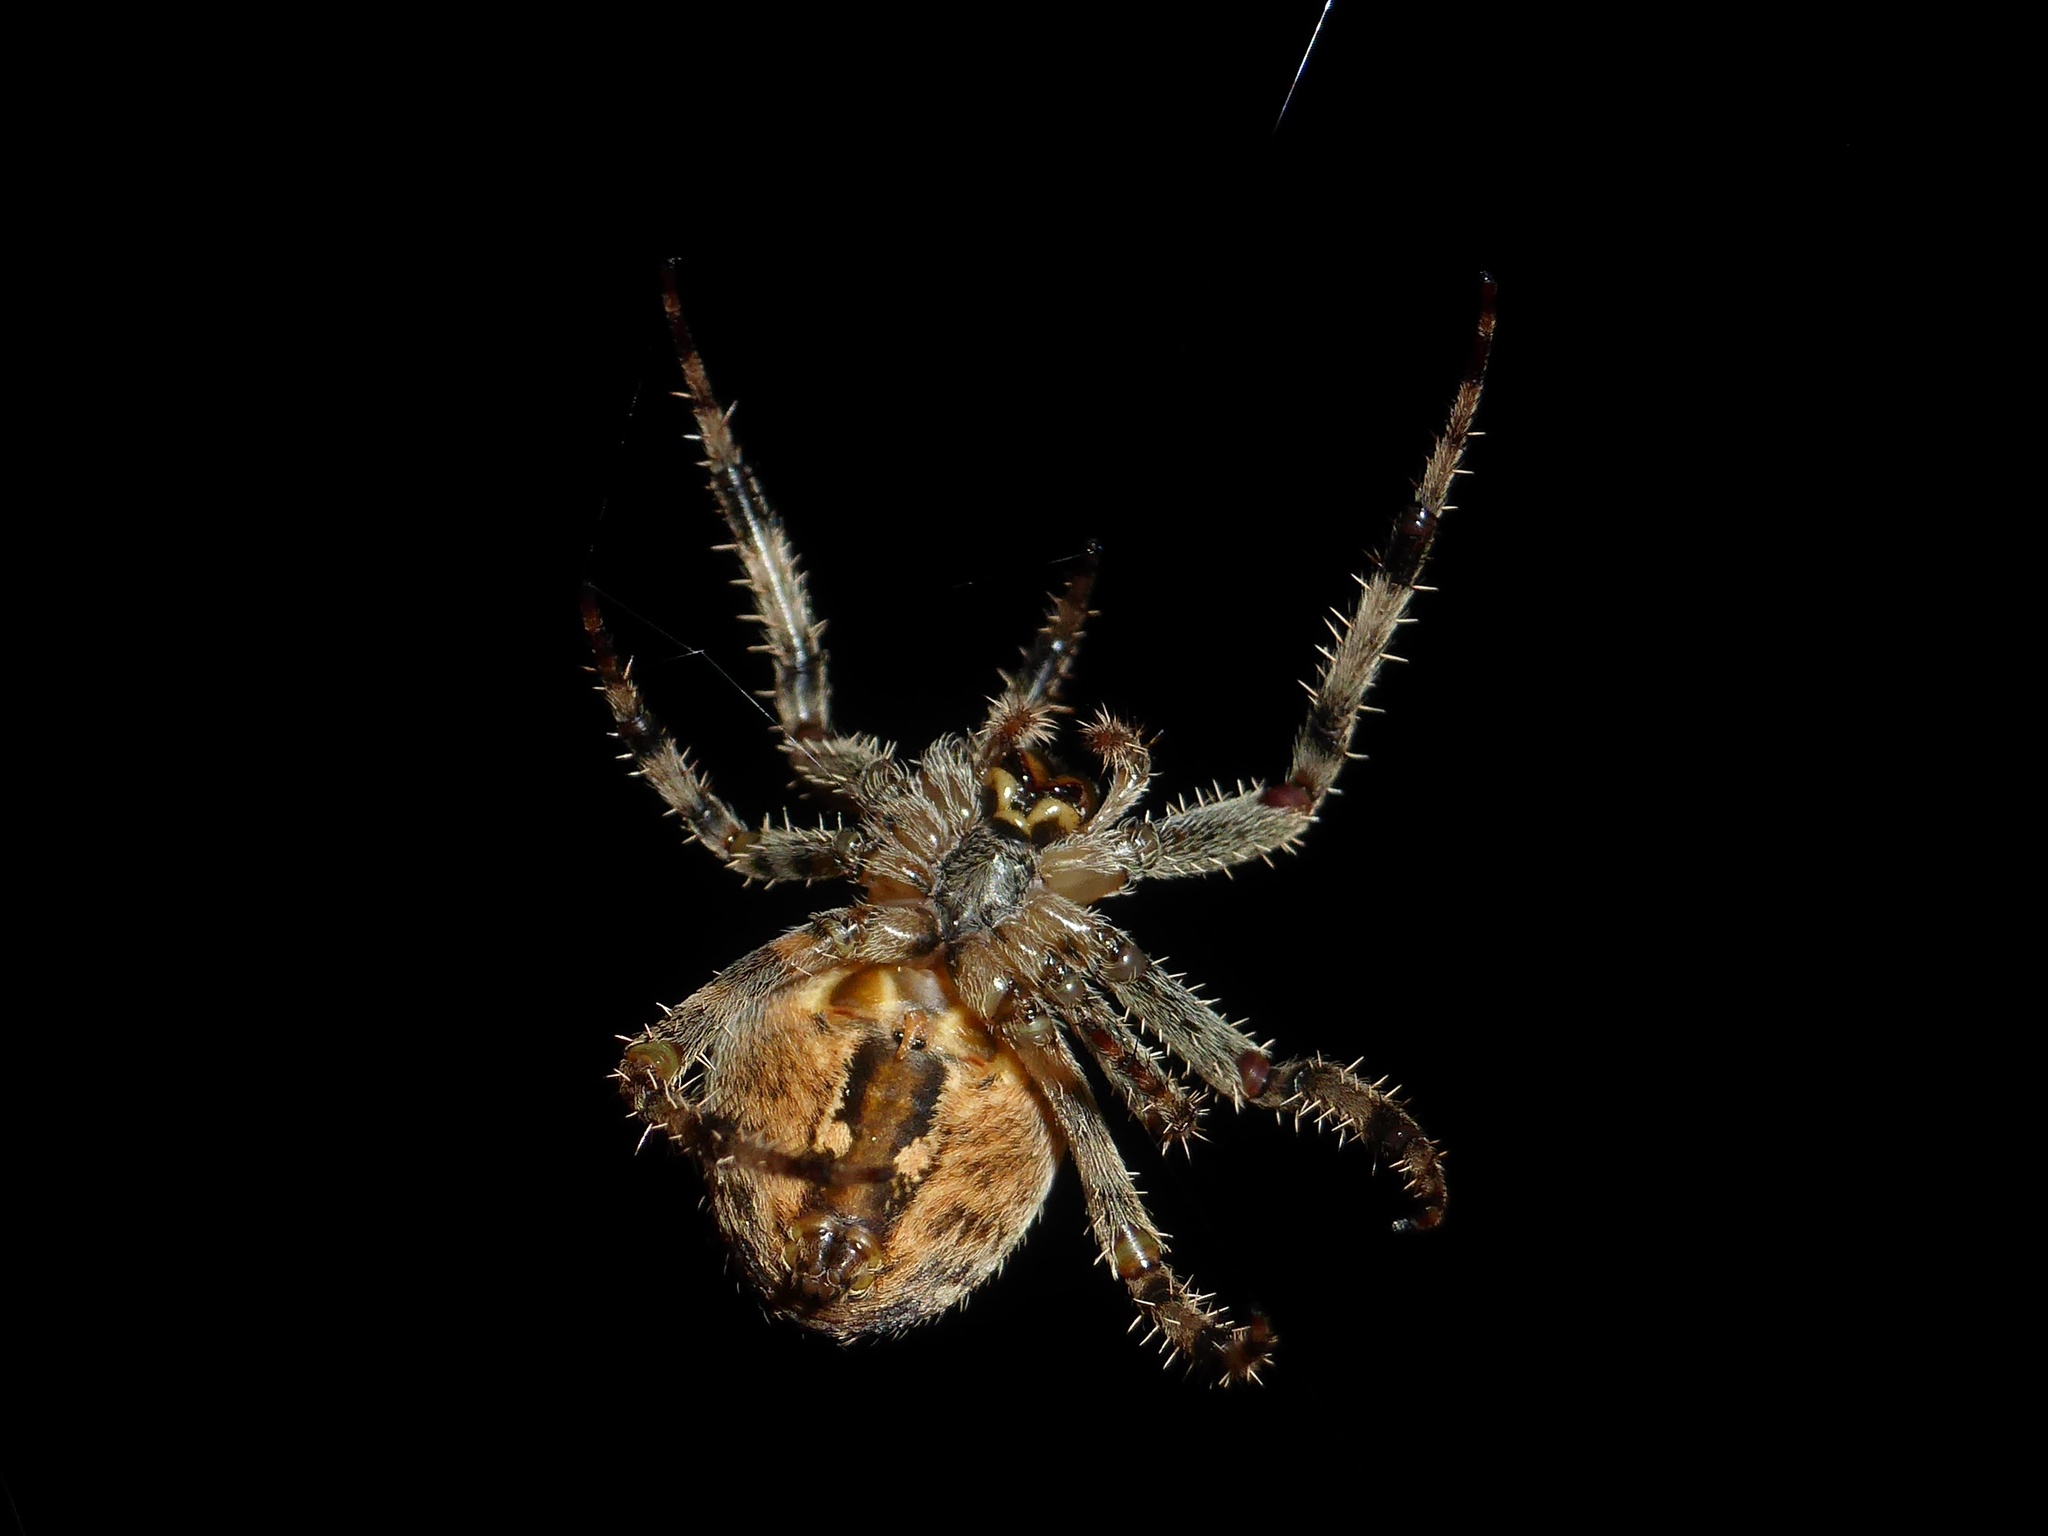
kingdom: Animalia
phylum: Arthropoda
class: Arachnida
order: Araneae
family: Araneidae
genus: Araneus
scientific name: Araneus diadematus
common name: Cross orbweaver
